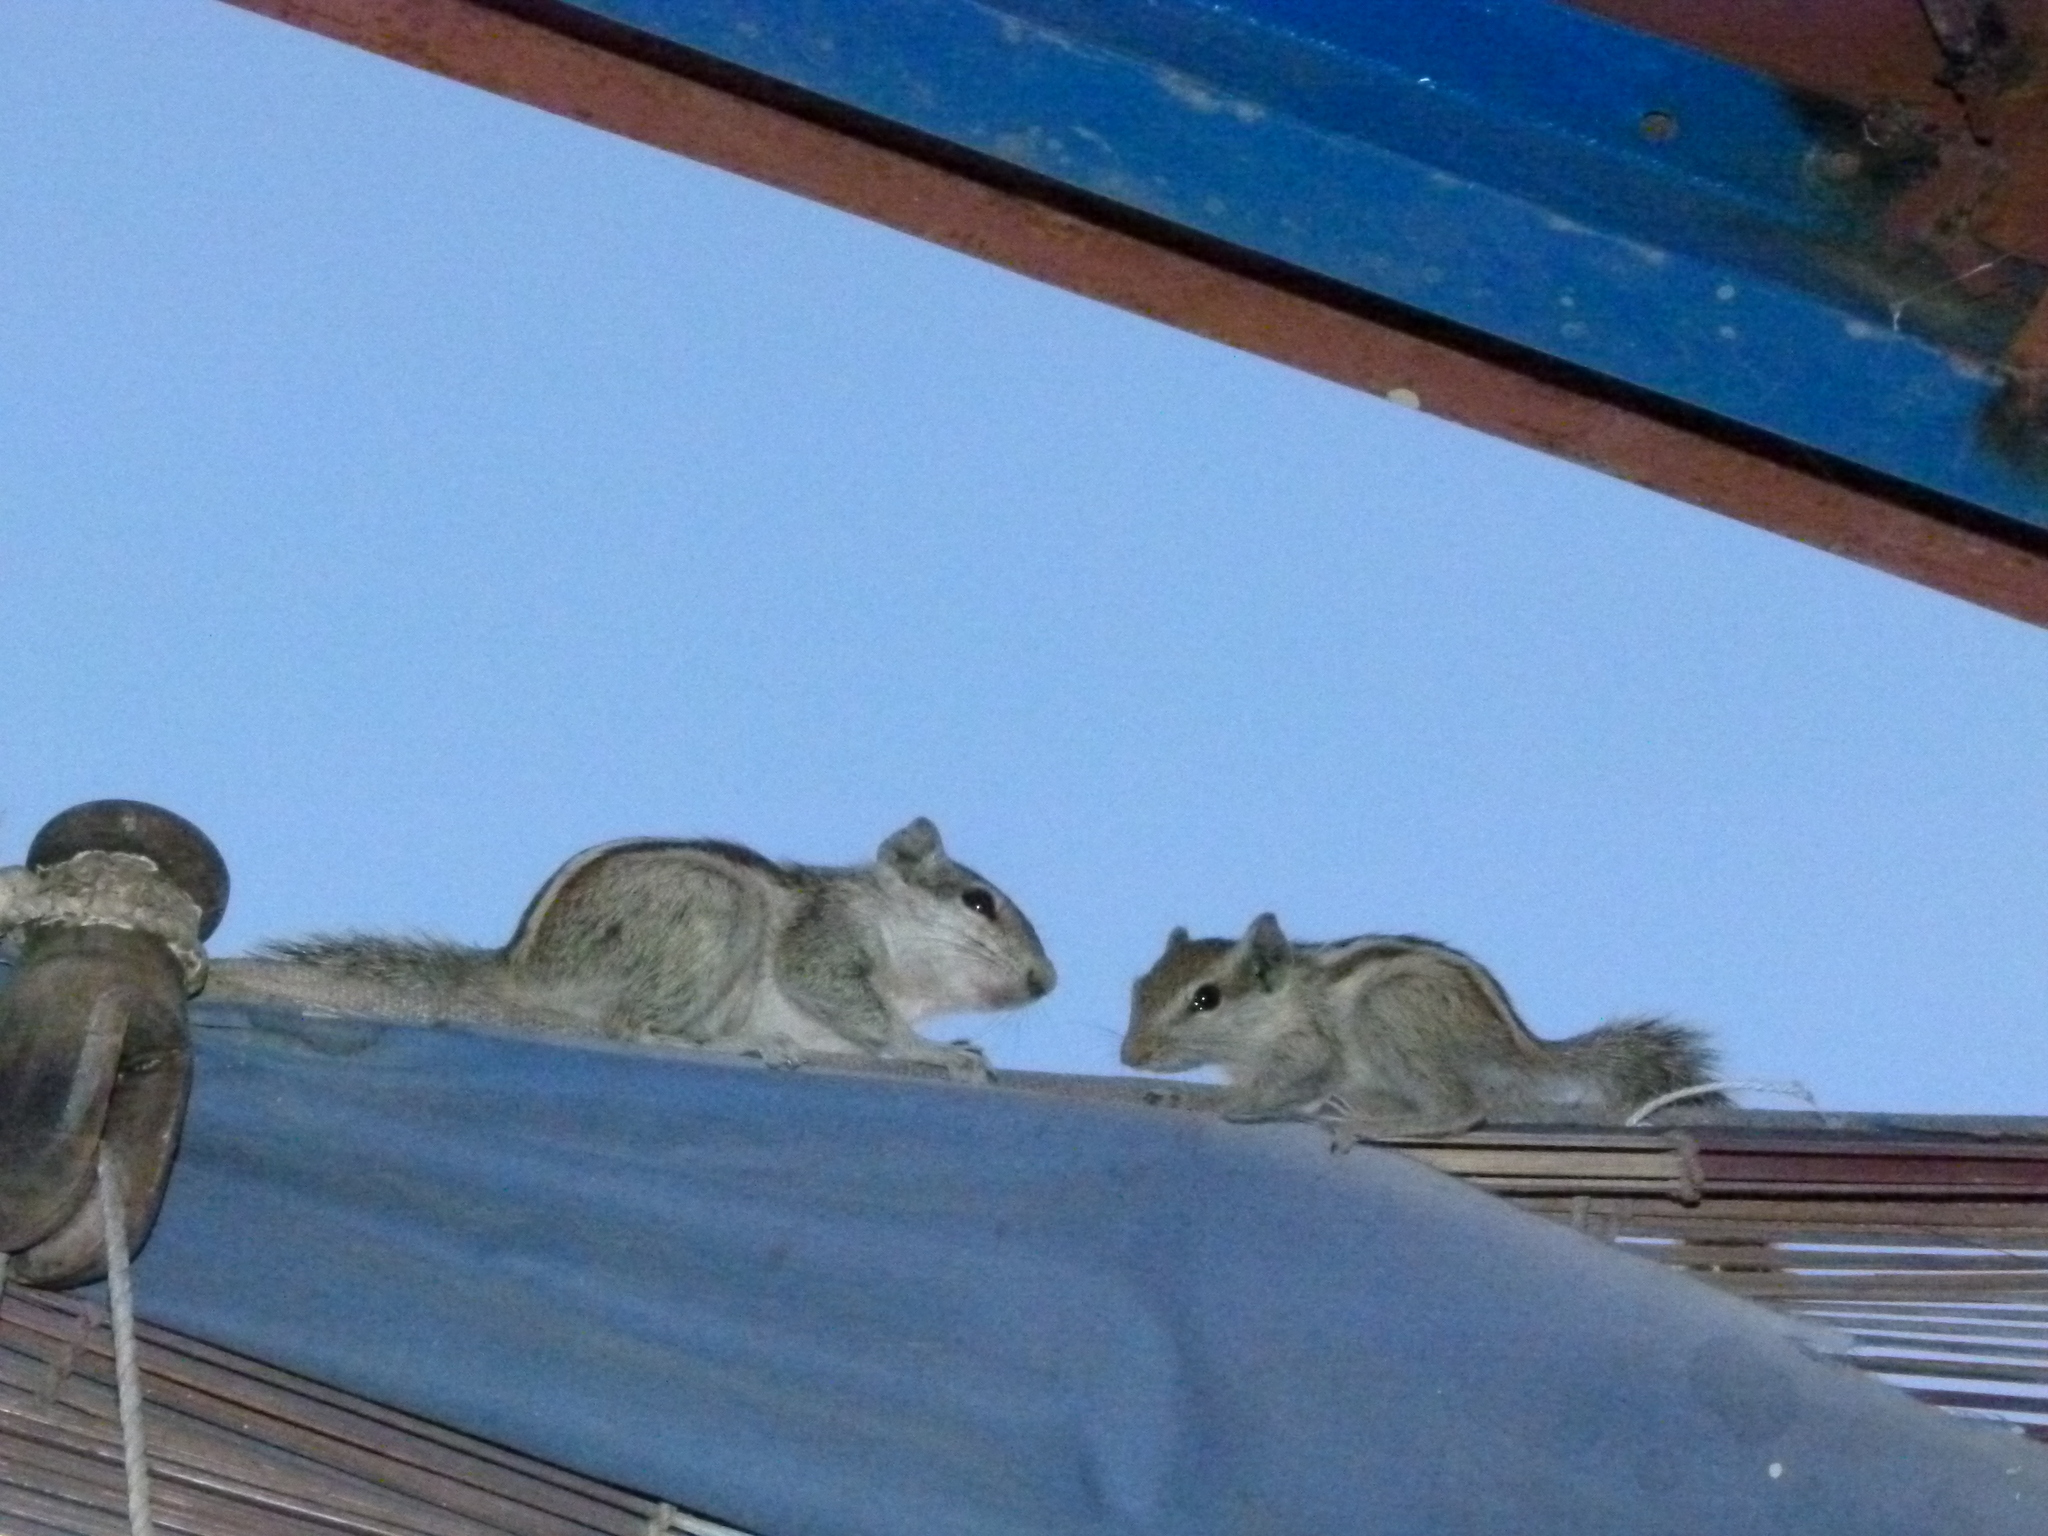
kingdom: Animalia
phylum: Chordata
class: Mammalia
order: Rodentia
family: Sciuridae
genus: Funambulus
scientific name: Funambulus pennantii
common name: Northern palm squirrel
